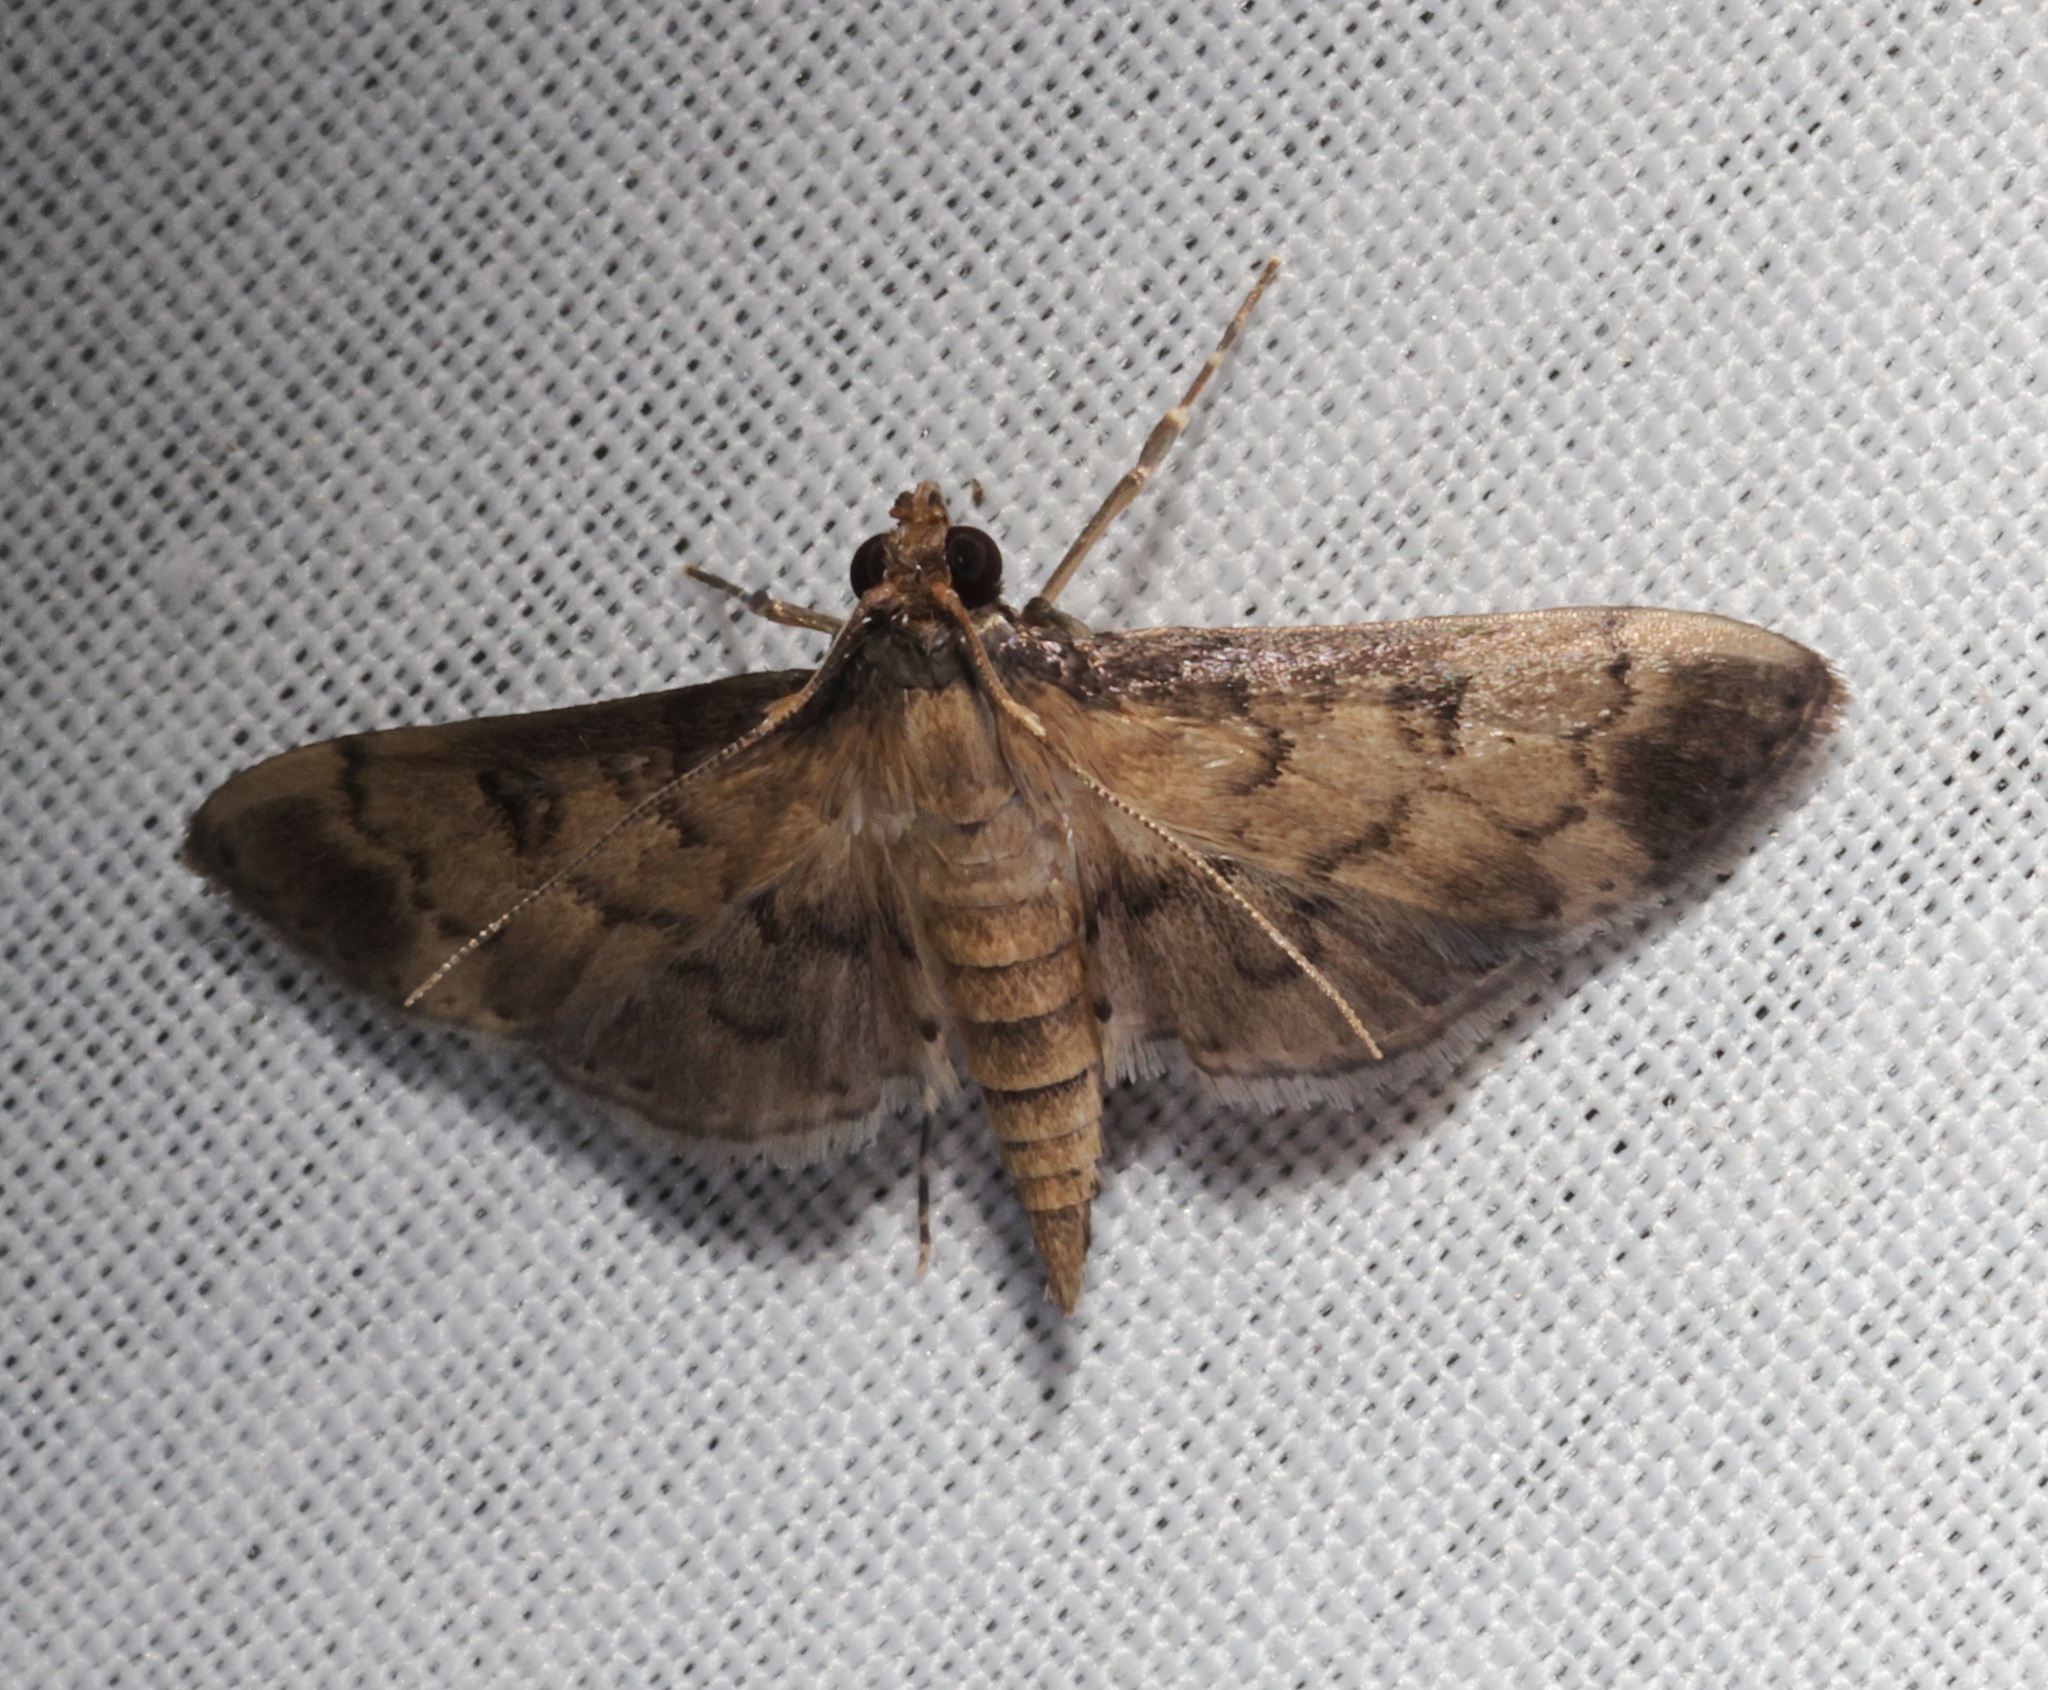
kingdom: Animalia
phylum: Arthropoda
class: Insecta
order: Lepidoptera
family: Crambidae
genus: Nacoleia
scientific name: Nacoleia charesalis
